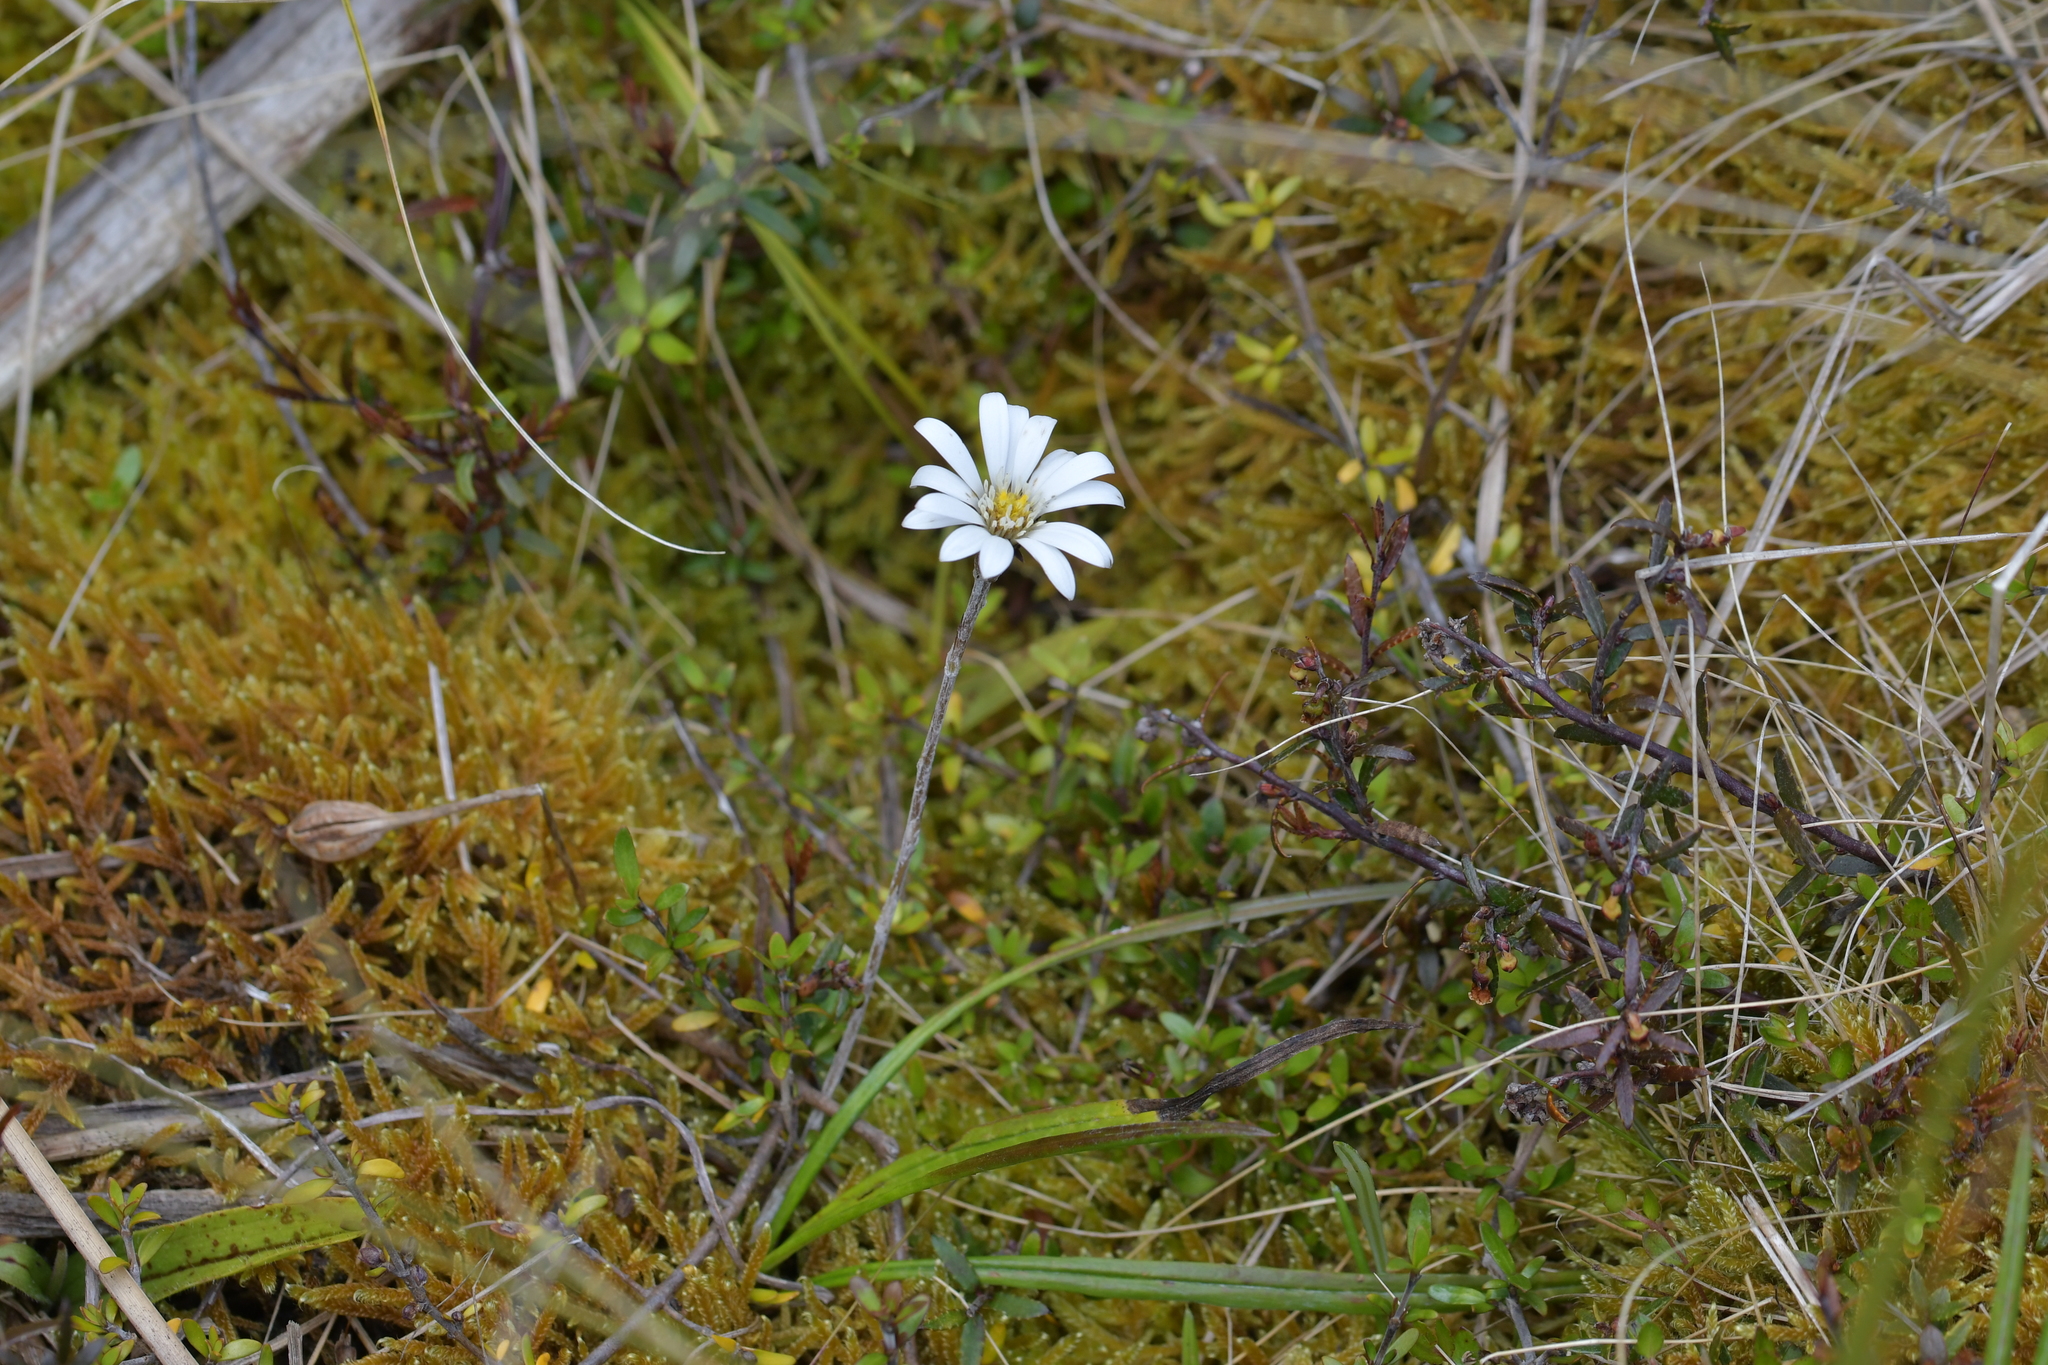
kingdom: Plantae
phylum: Tracheophyta
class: Magnoliopsida
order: Asterales
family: Asteraceae
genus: Celmisia
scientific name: Celmisia gracilenta
